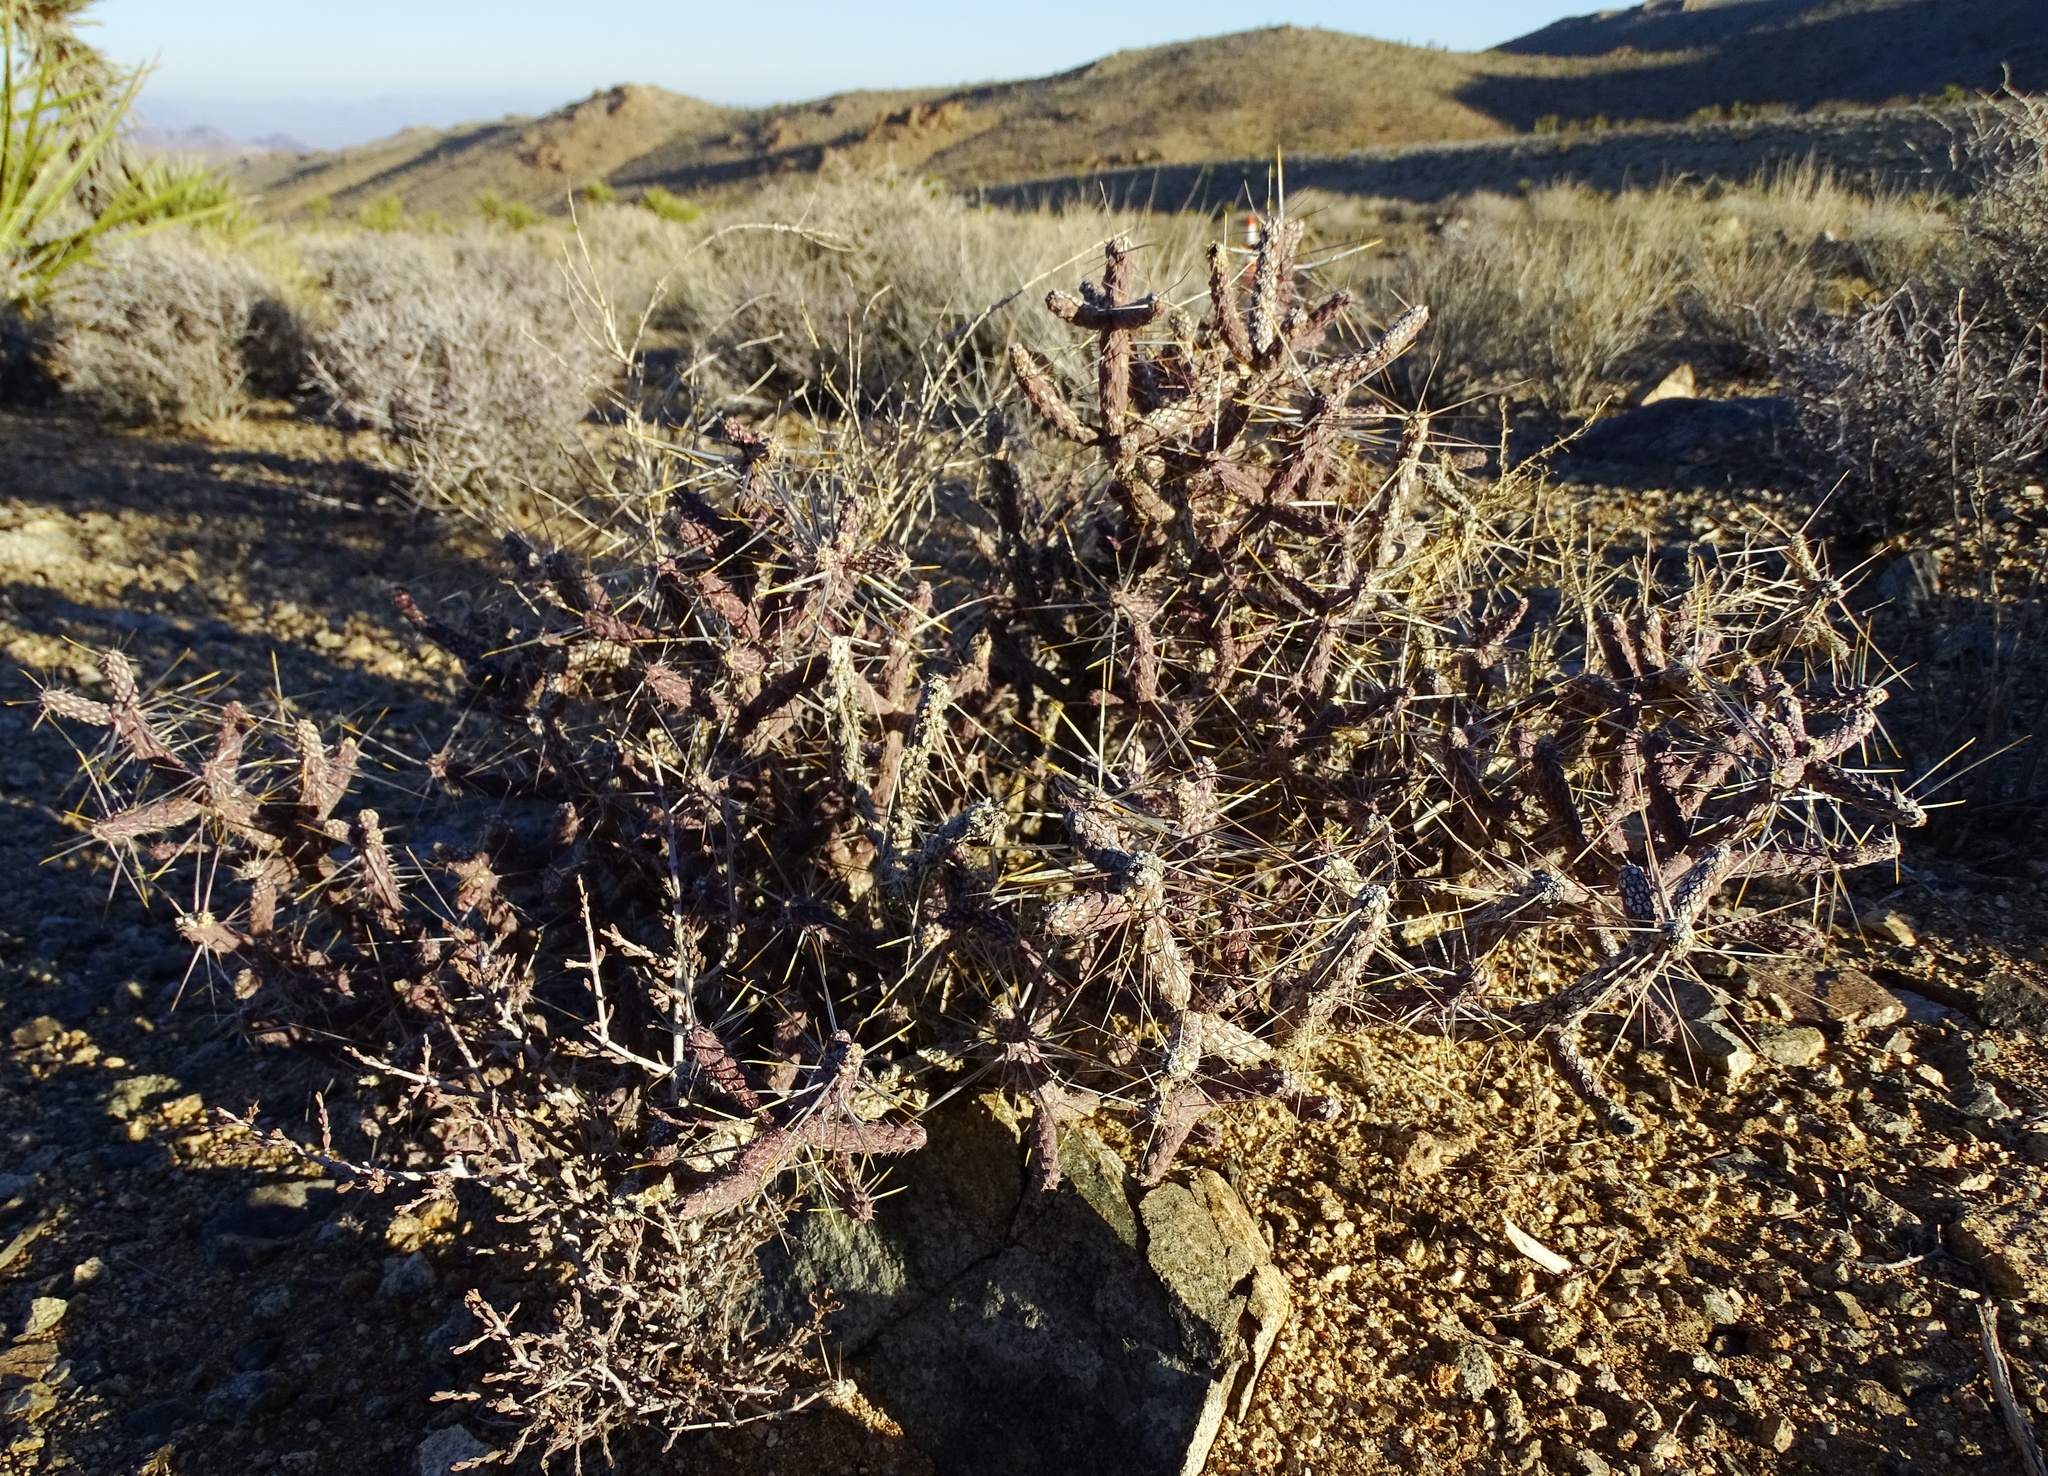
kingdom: Plantae
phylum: Tracheophyta
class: Magnoliopsida
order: Caryophyllales
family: Cactaceae
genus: Cylindropuntia
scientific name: Cylindropuntia ramosissima
